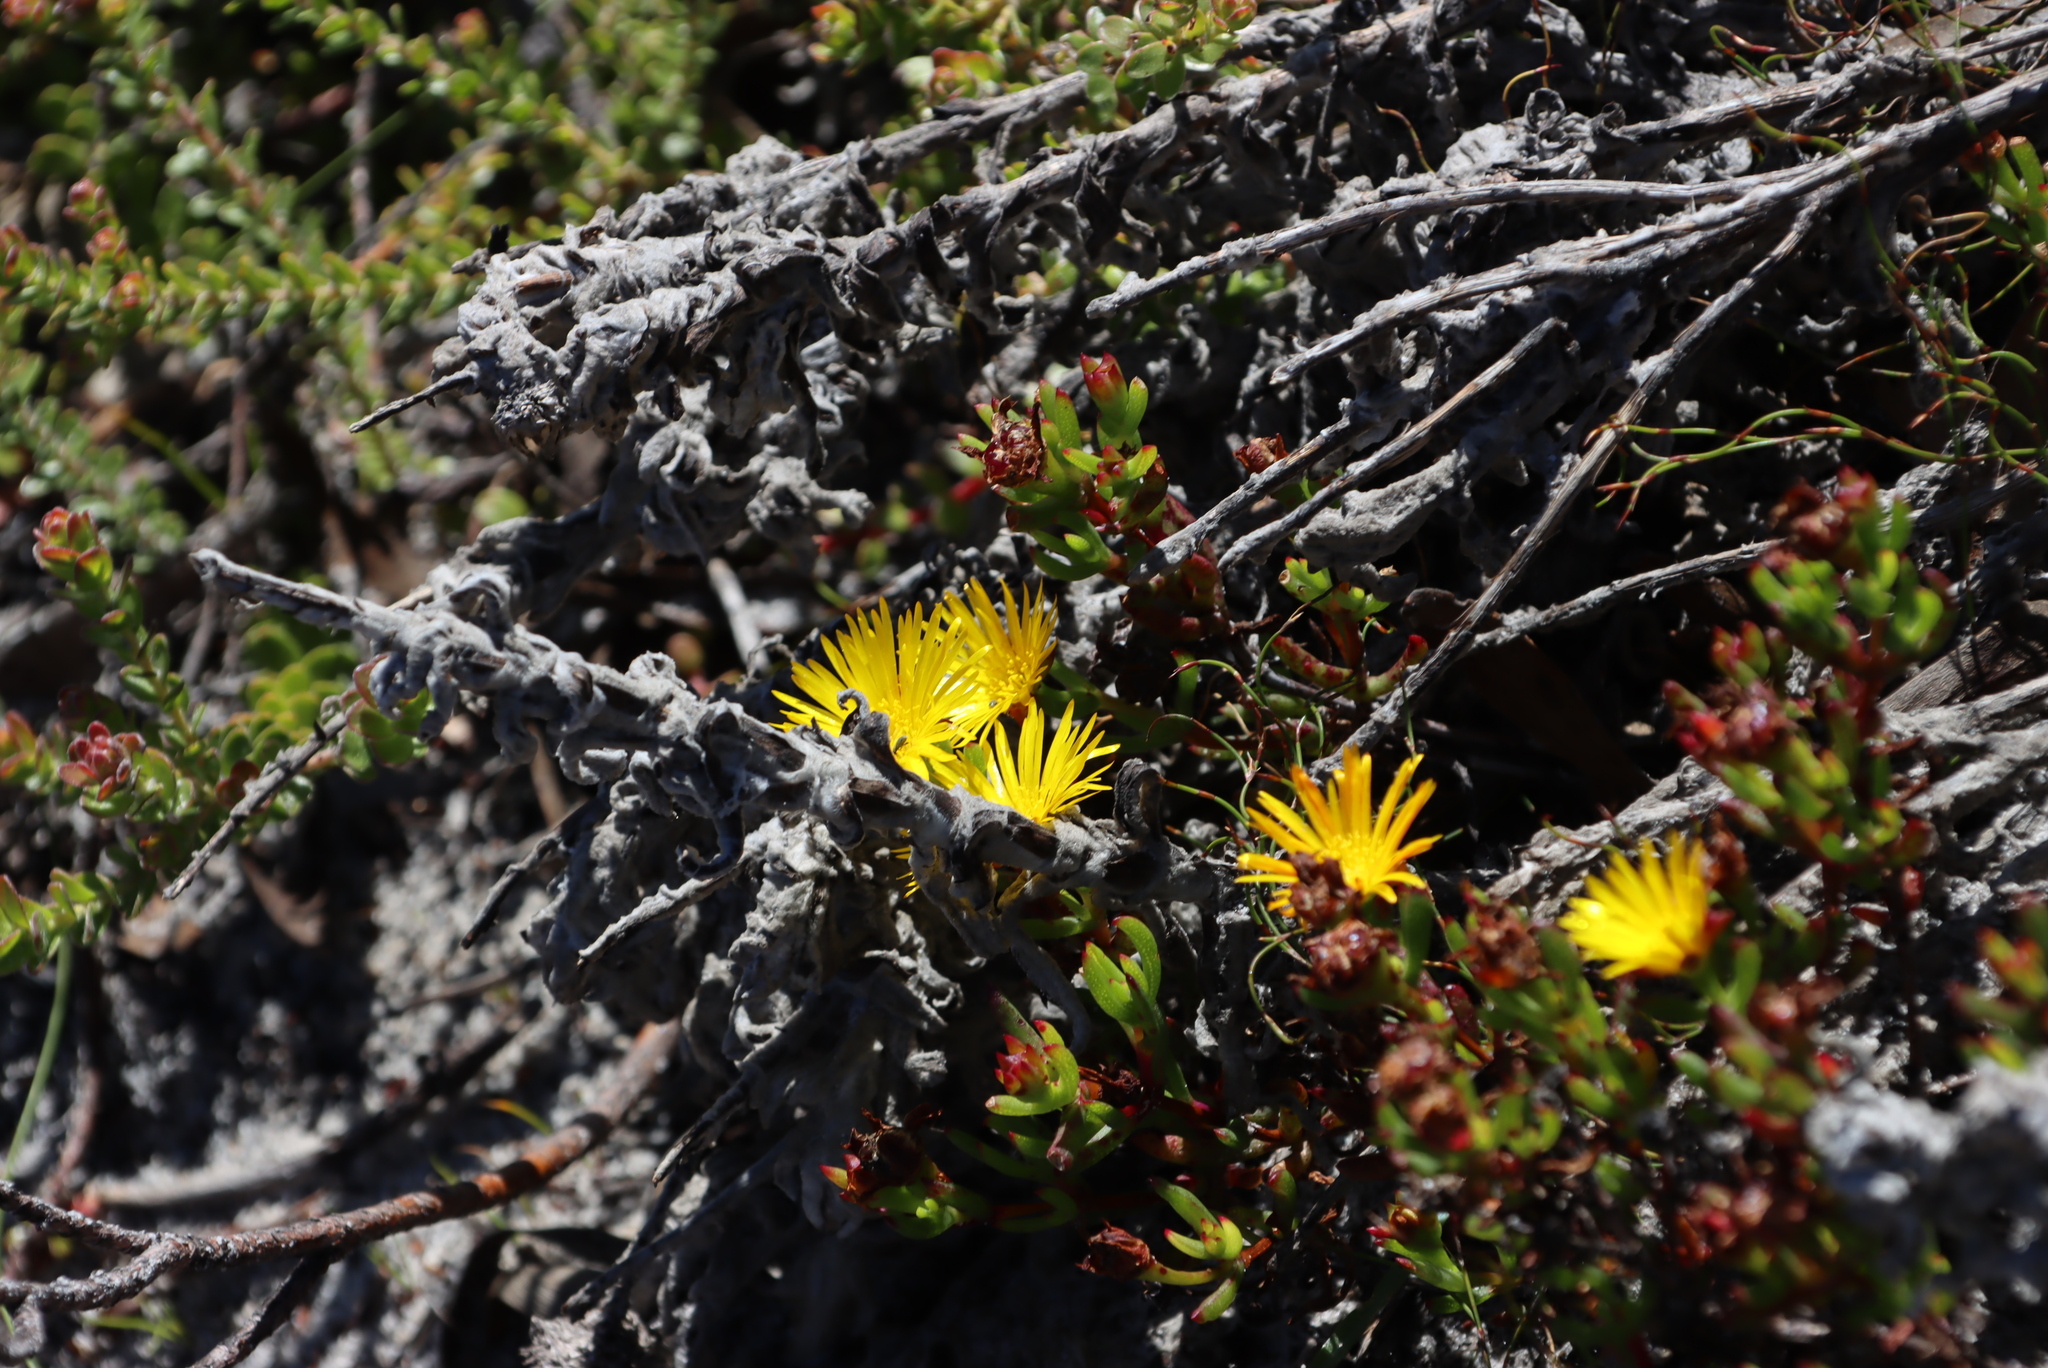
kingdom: Plantae
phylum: Tracheophyta
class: Magnoliopsida
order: Caryophyllales
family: Aizoaceae
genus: Lampranthus
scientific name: Lampranthus promontorii
